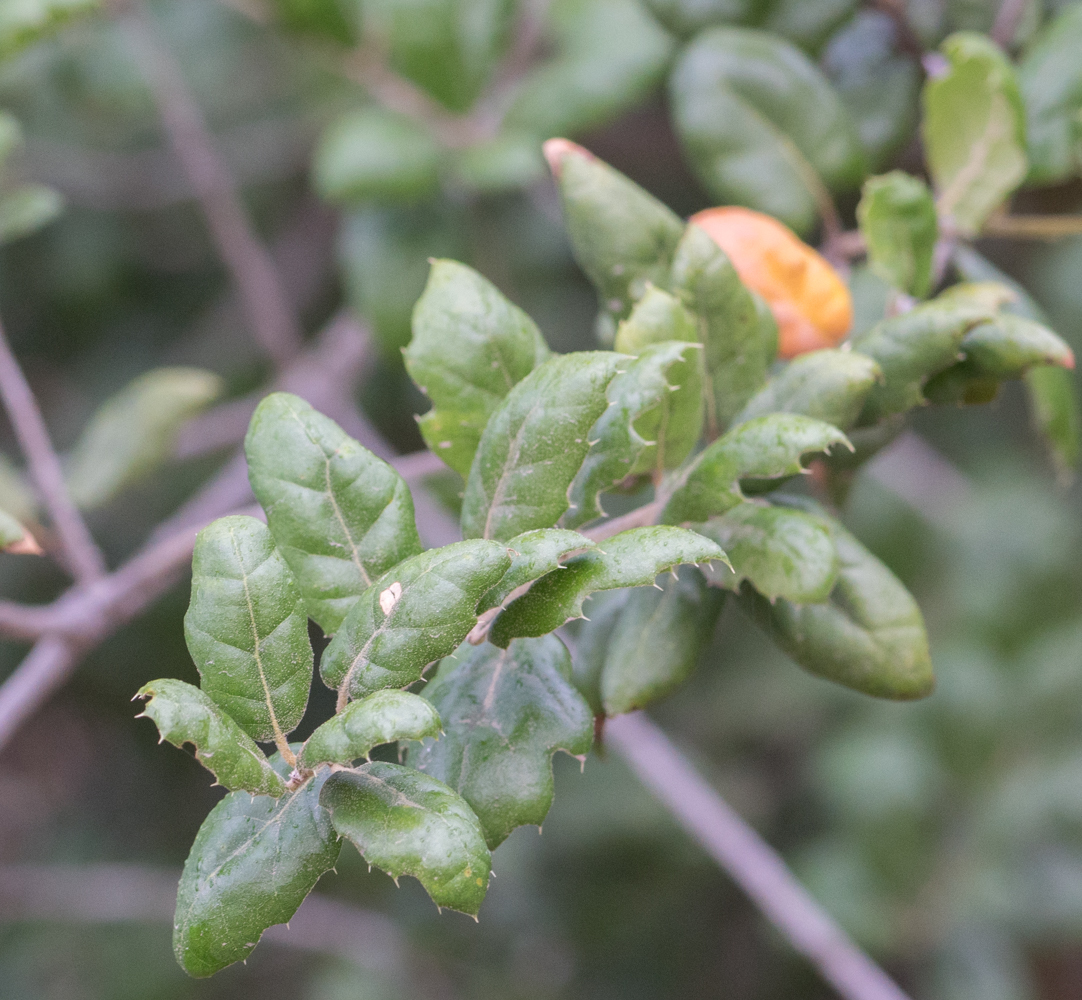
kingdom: Plantae
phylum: Tracheophyta
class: Magnoliopsida
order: Fagales
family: Fagaceae
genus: Quercus
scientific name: Quercus agrifolia
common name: California live oak
